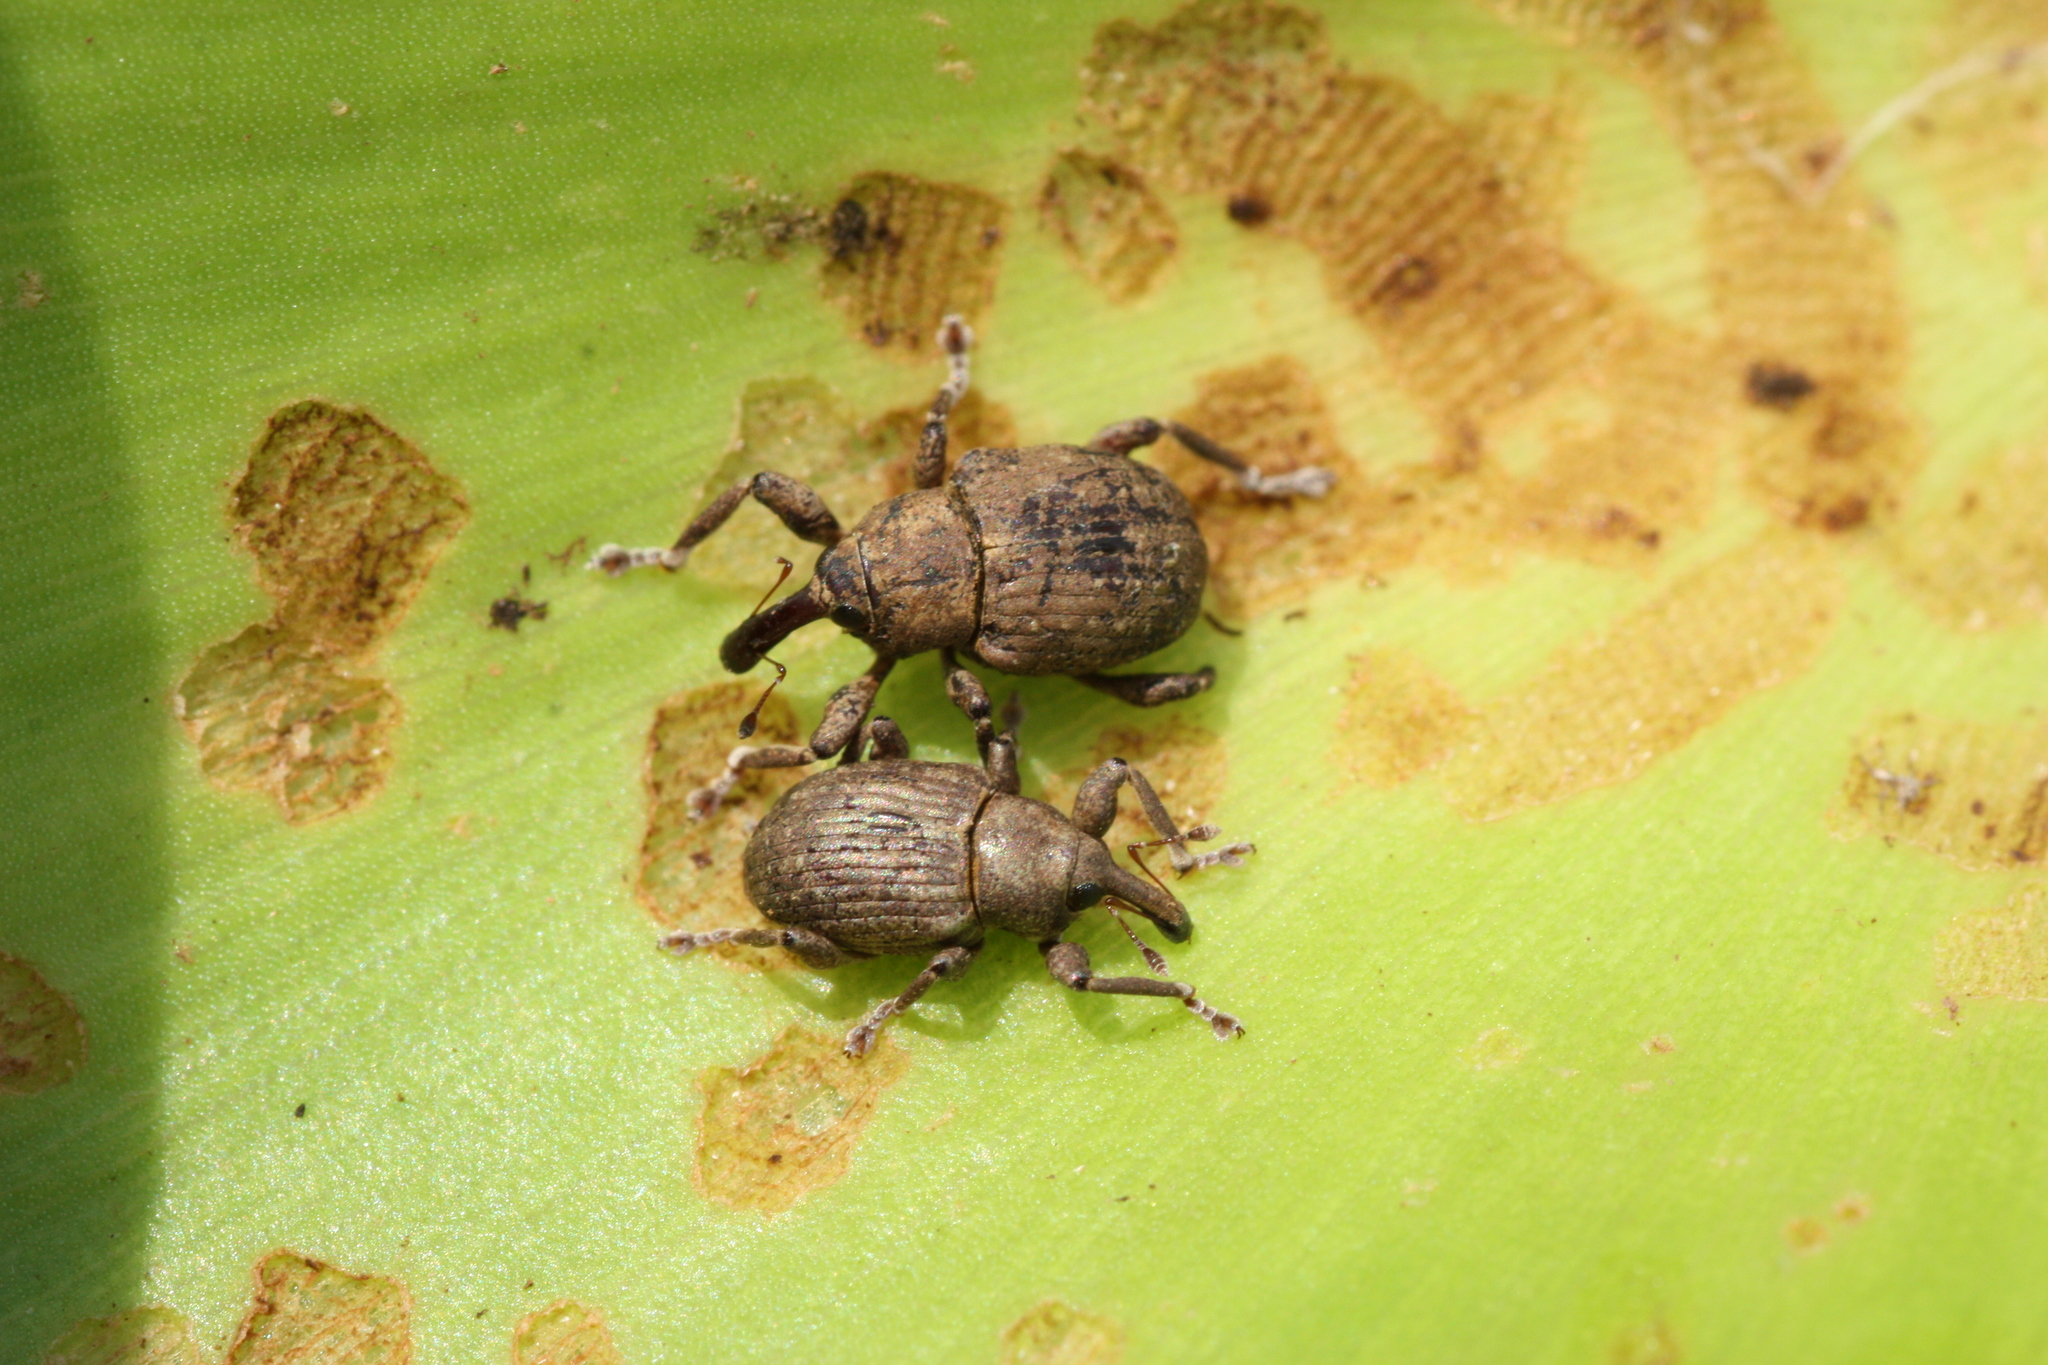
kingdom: Animalia
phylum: Arthropoda
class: Insecta
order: Coleoptera
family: Brachyceridae
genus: Neochetina
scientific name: Neochetina eichhorniae
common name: Weevil
